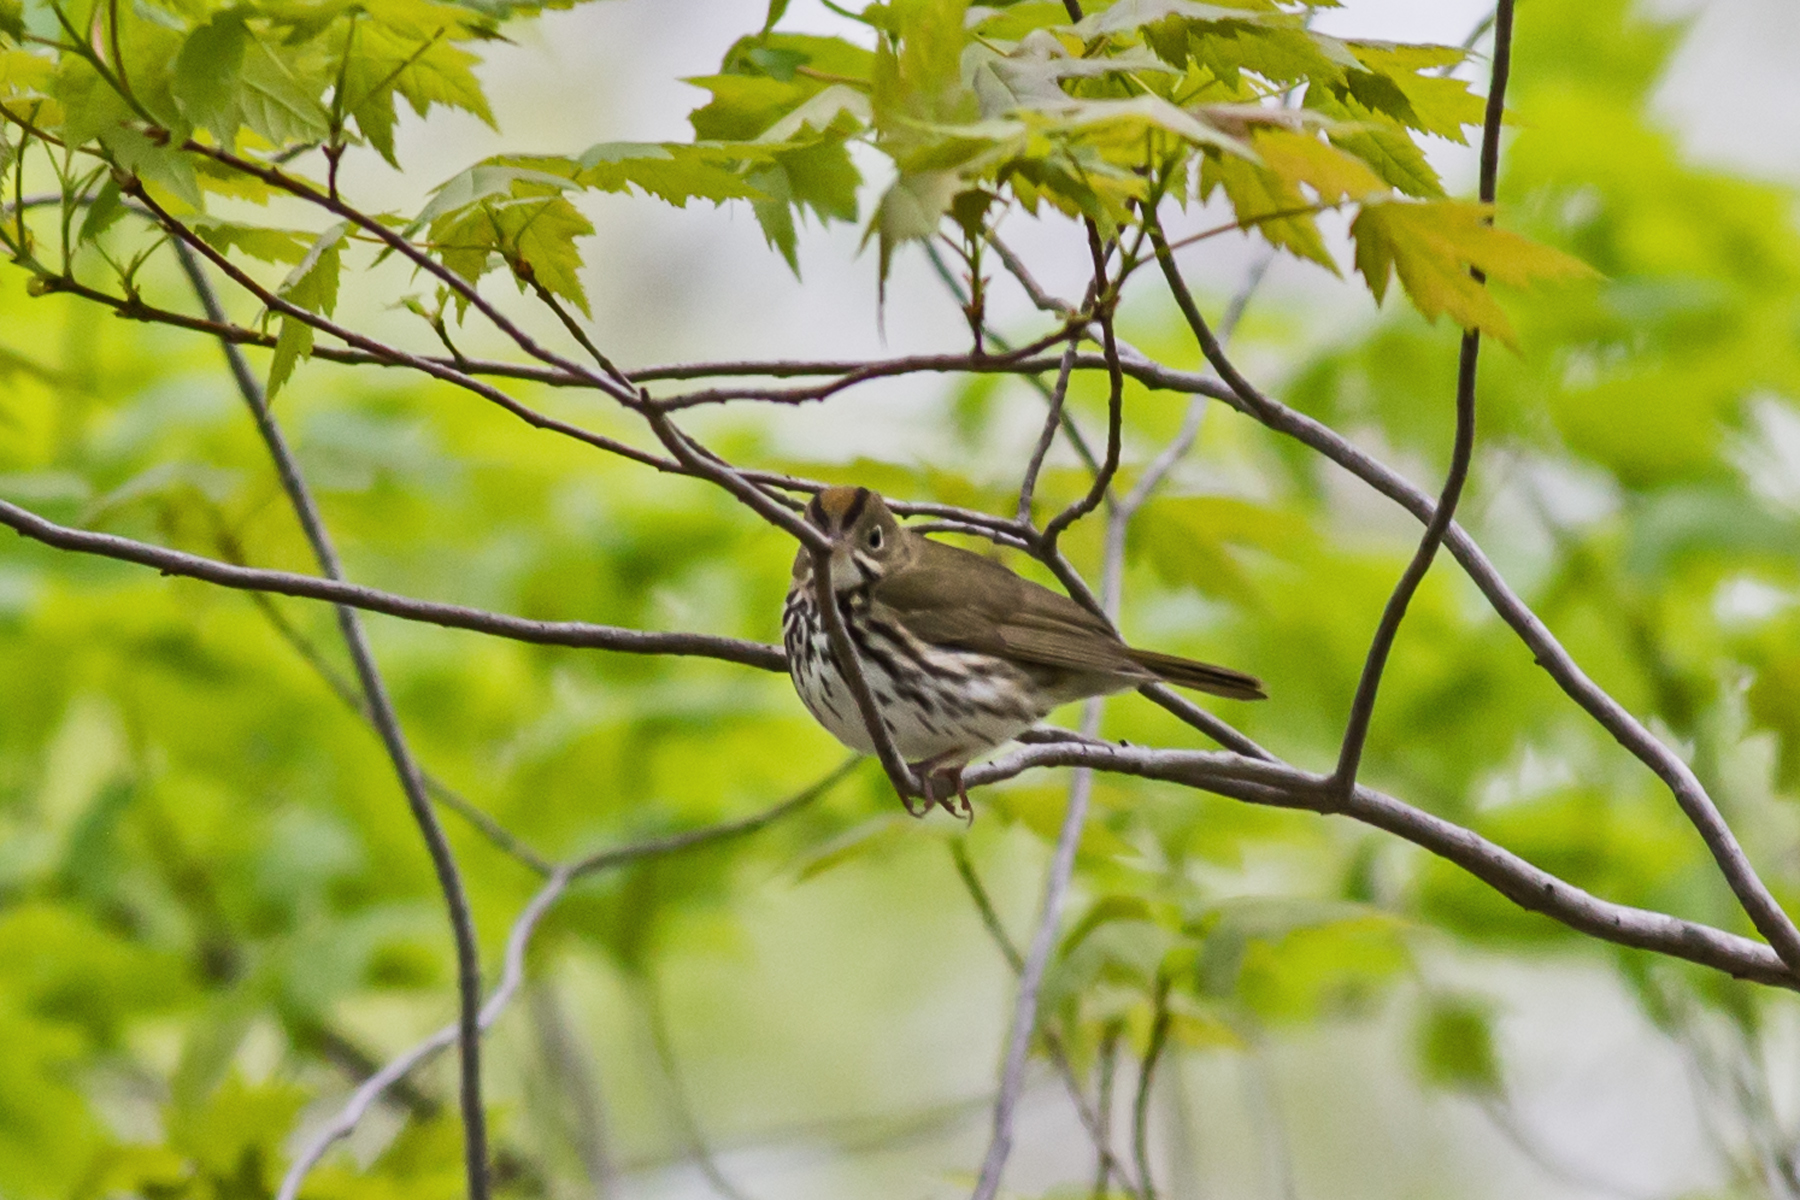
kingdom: Animalia
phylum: Chordata
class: Aves
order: Passeriformes
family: Parulidae
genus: Seiurus
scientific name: Seiurus aurocapilla
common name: Ovenbird
